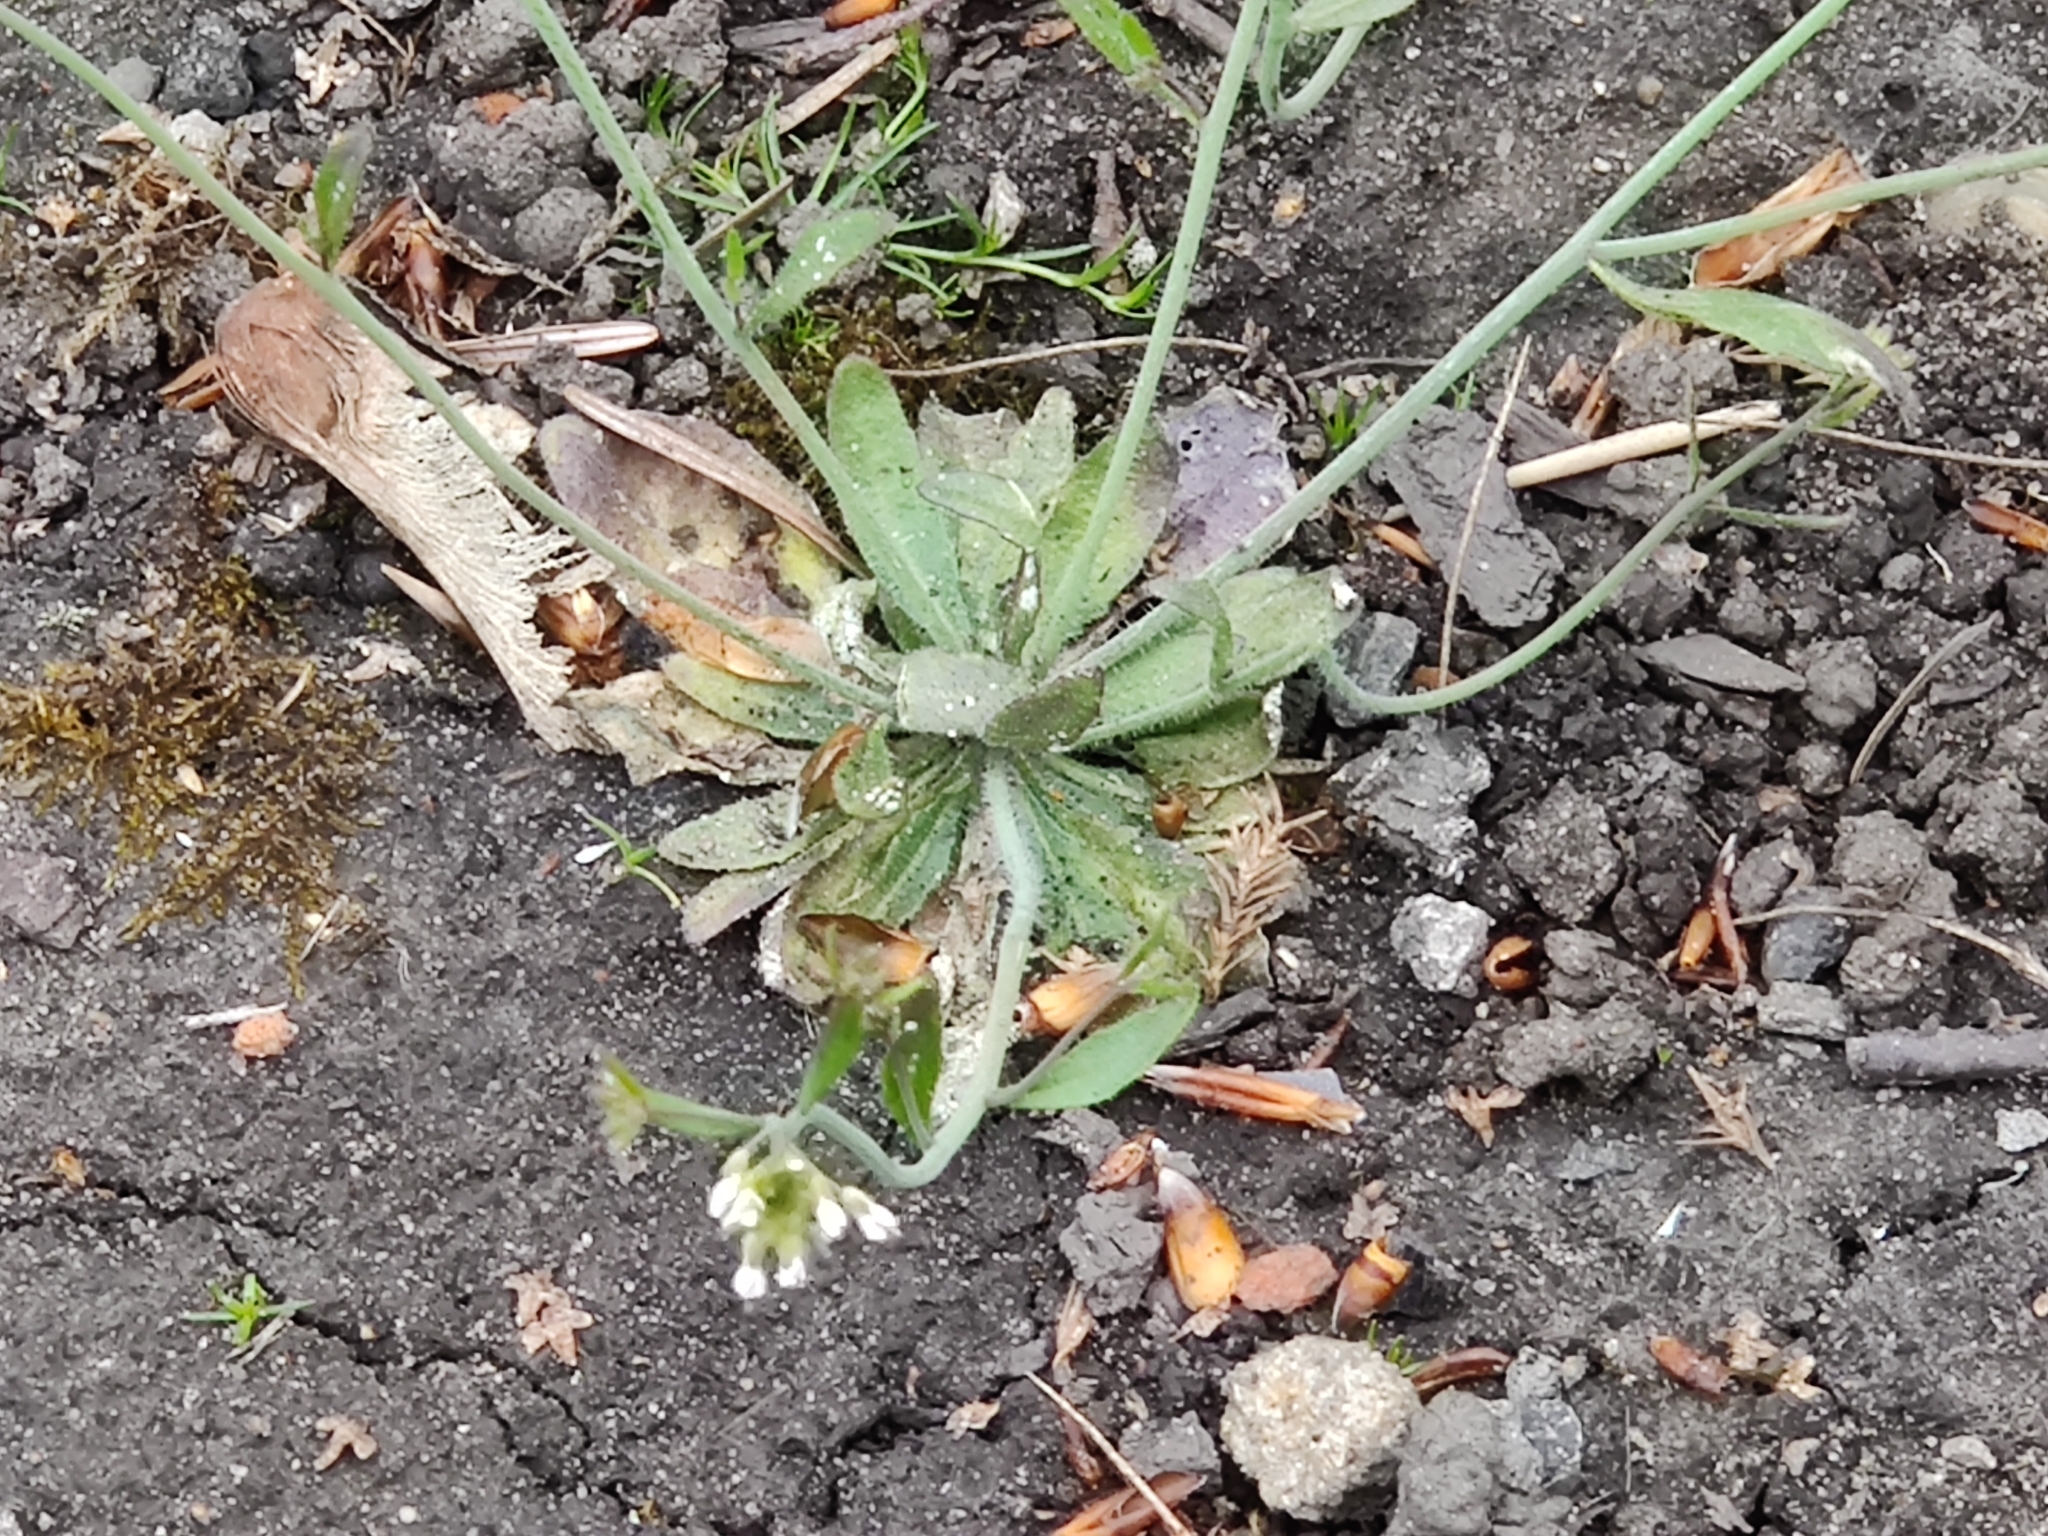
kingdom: Plantae
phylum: Tracheophyta
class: Magnoliopsida
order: Brassicales
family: Brassicaceae
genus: Arabidopsis
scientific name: Arabidopsis thaliana
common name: Thale cress
